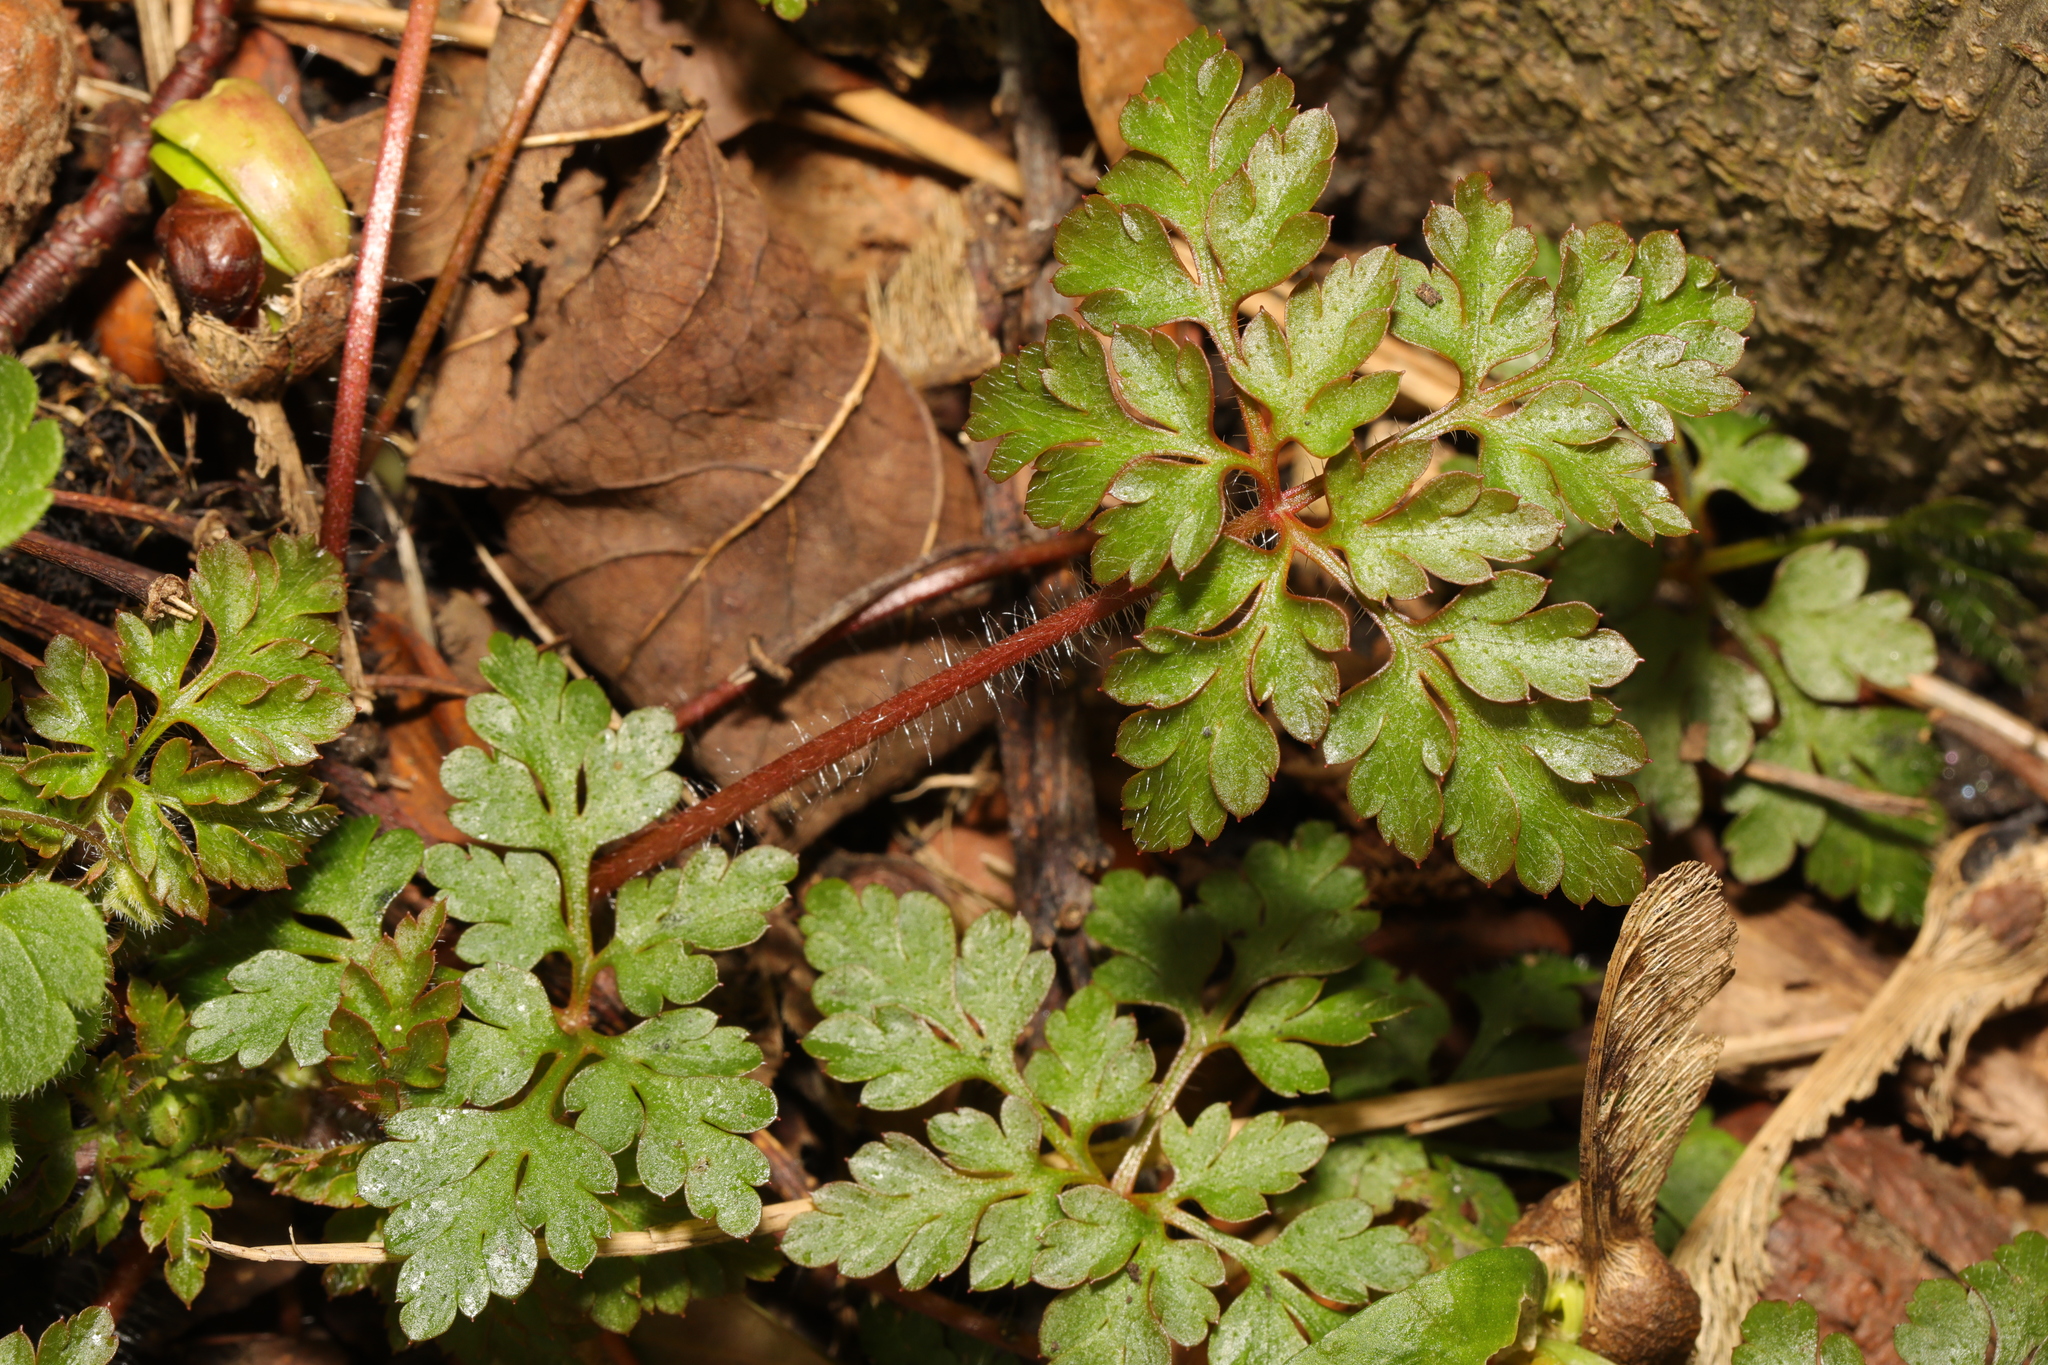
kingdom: Plantae
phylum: Tracheophyta
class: Magnoliopsida
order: Geraniales
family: Geraniaceae
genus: Geranium
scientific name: Geranium robertianum
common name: Herb-robert
